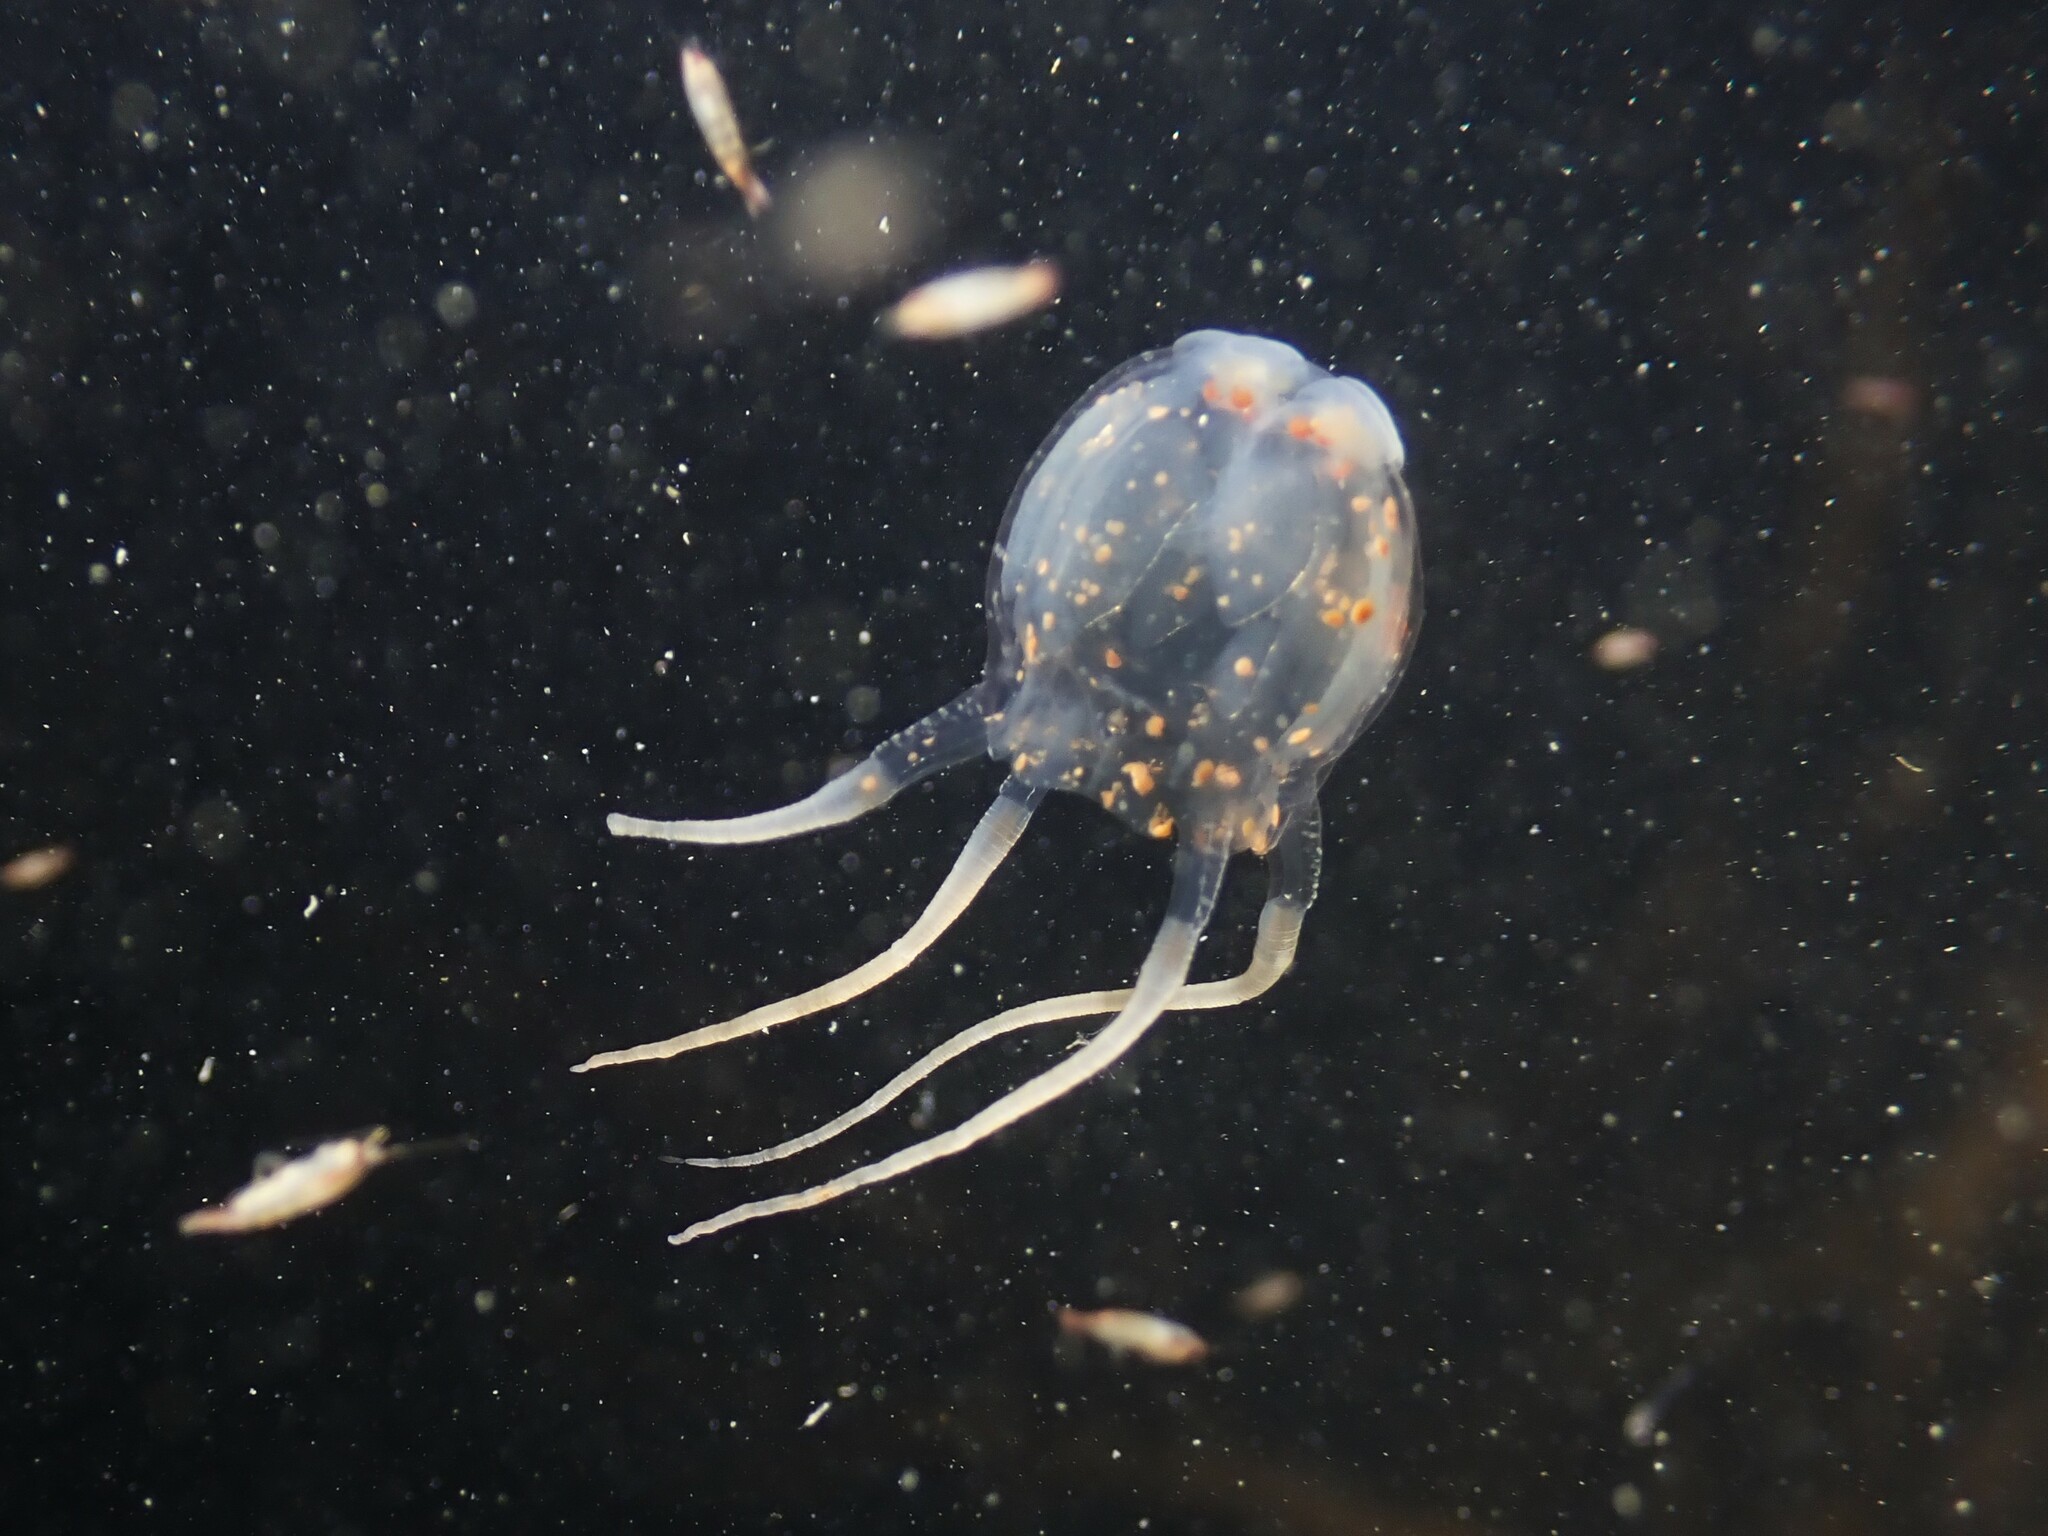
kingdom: Animalia
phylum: Cnidaria
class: Cubozoa
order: Carybdeida
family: Tripedaliidae
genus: Copula
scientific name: Copula sivickisi
